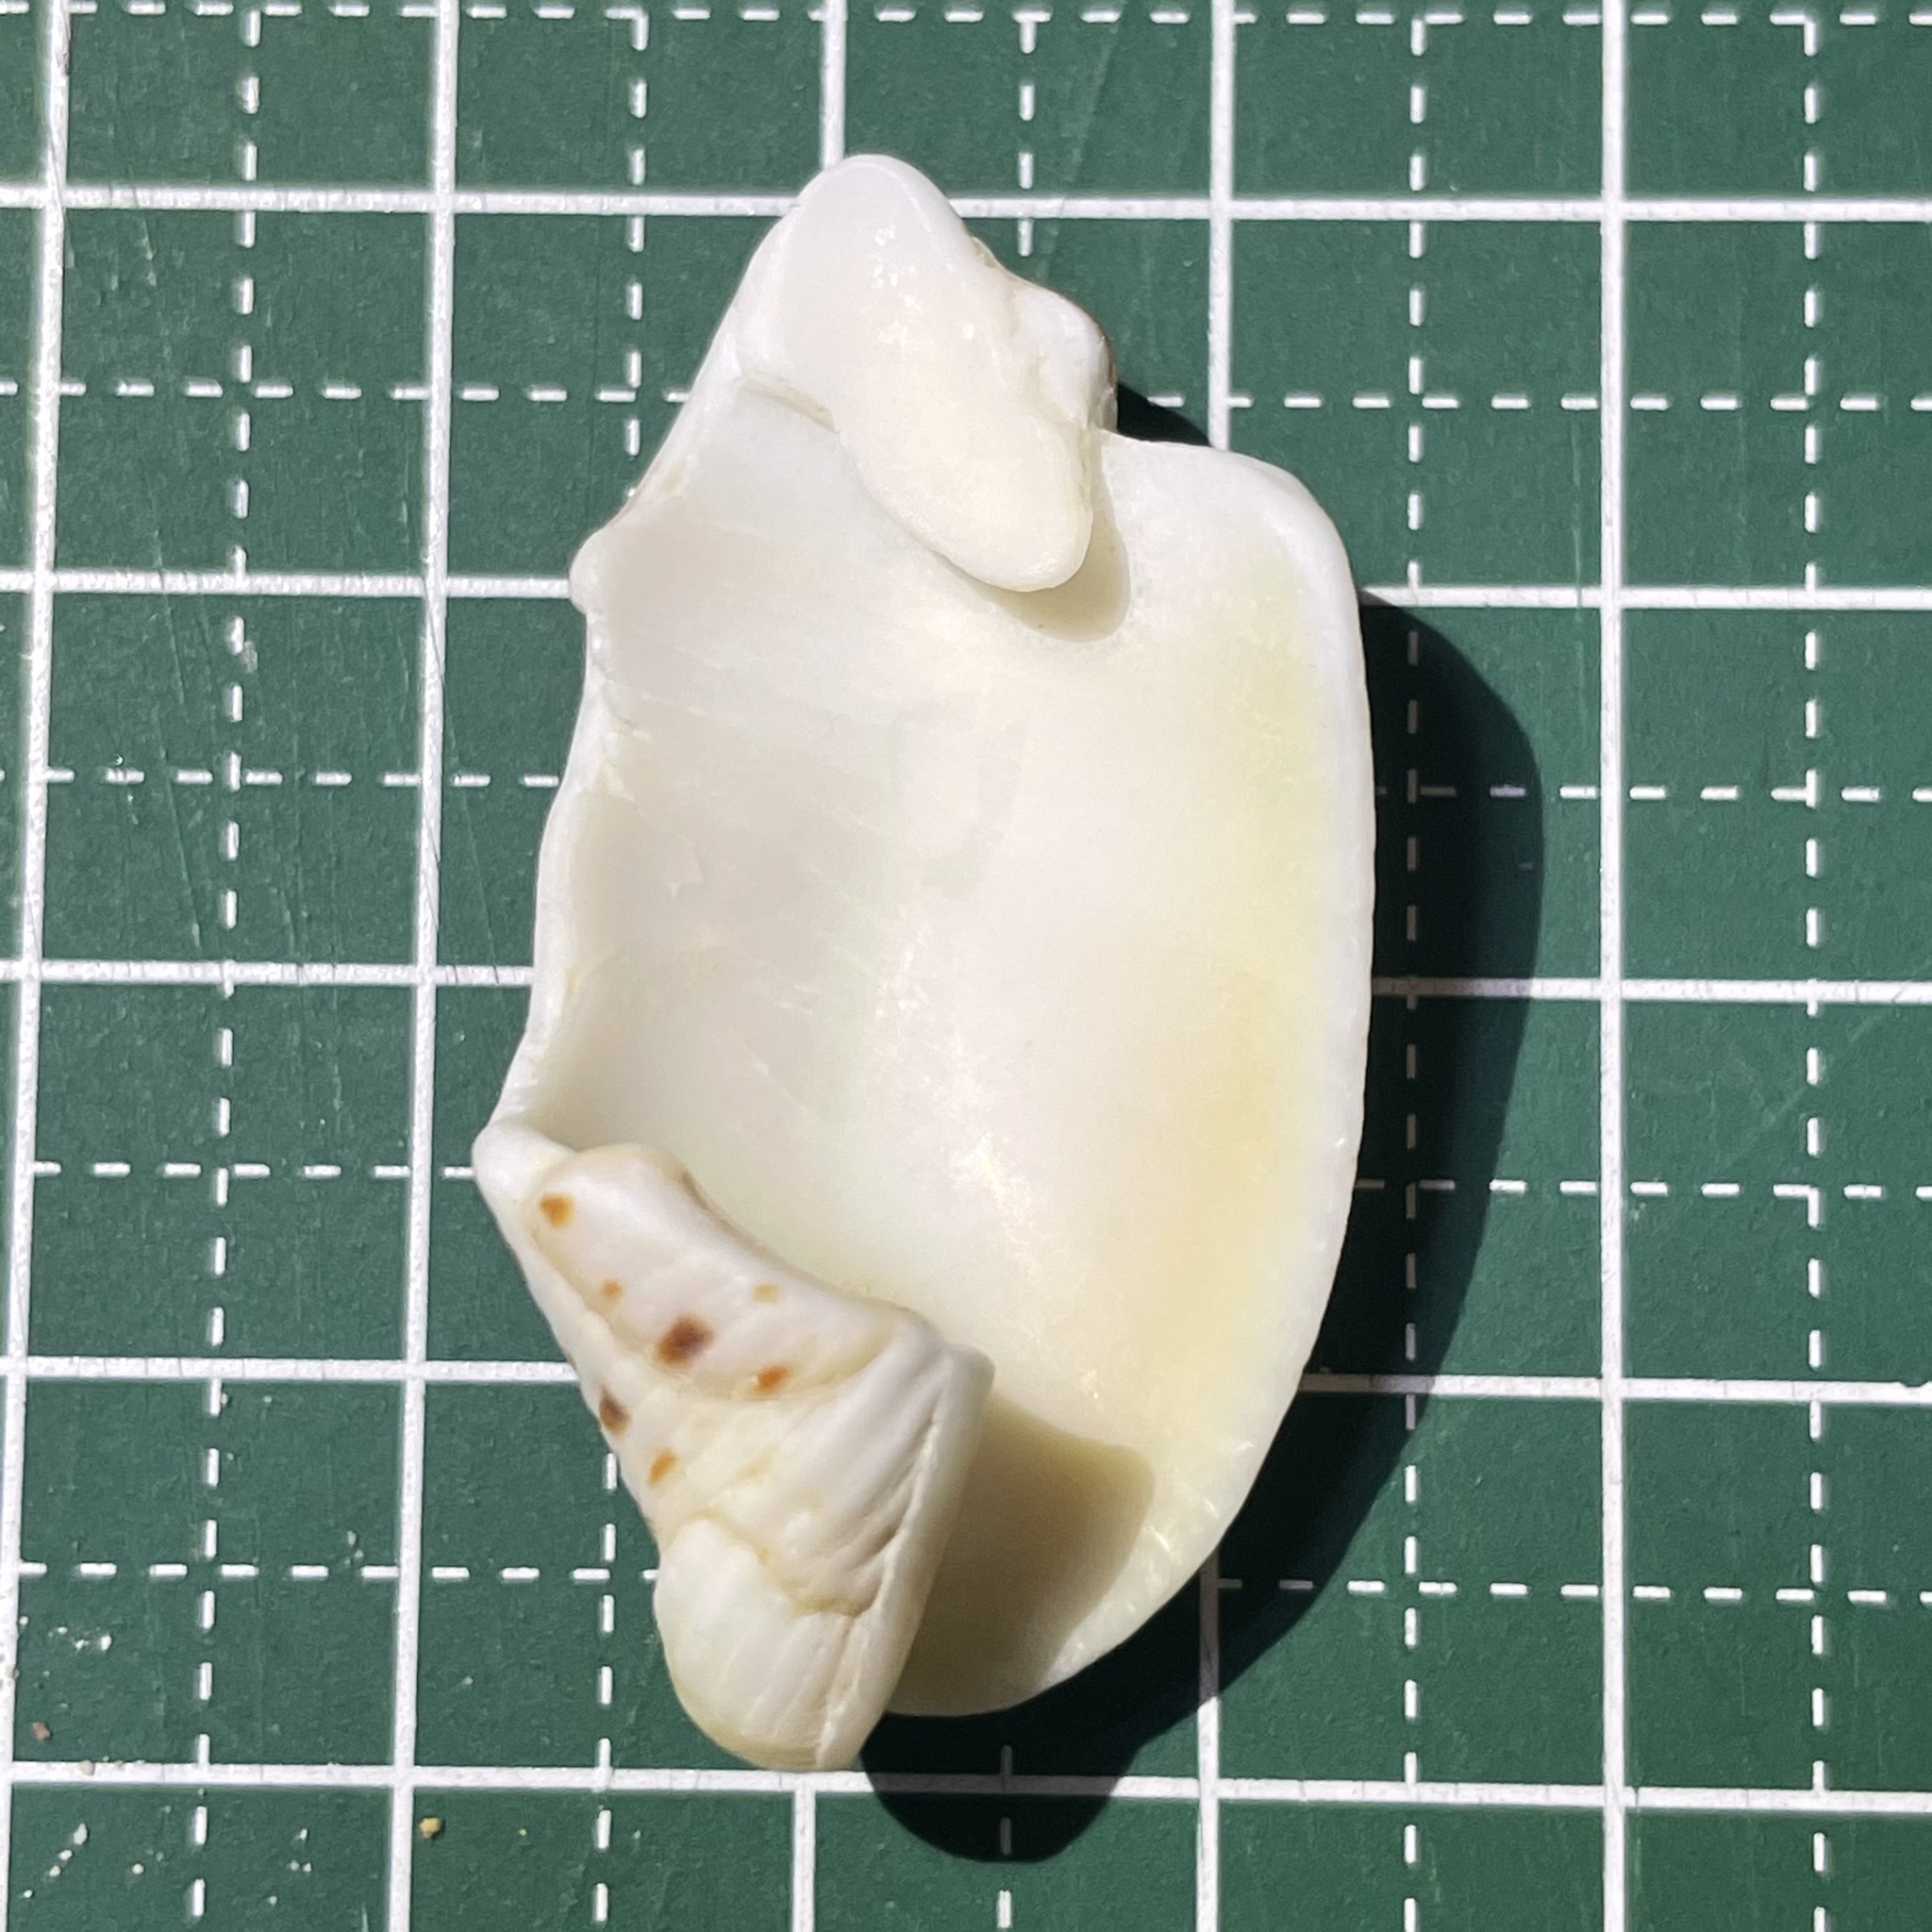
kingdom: Animalia
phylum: Mollusca
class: Gastropoda
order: Neogastropoda
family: Mitridae
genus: Quasimitra
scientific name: Quasimitra cardinalis
